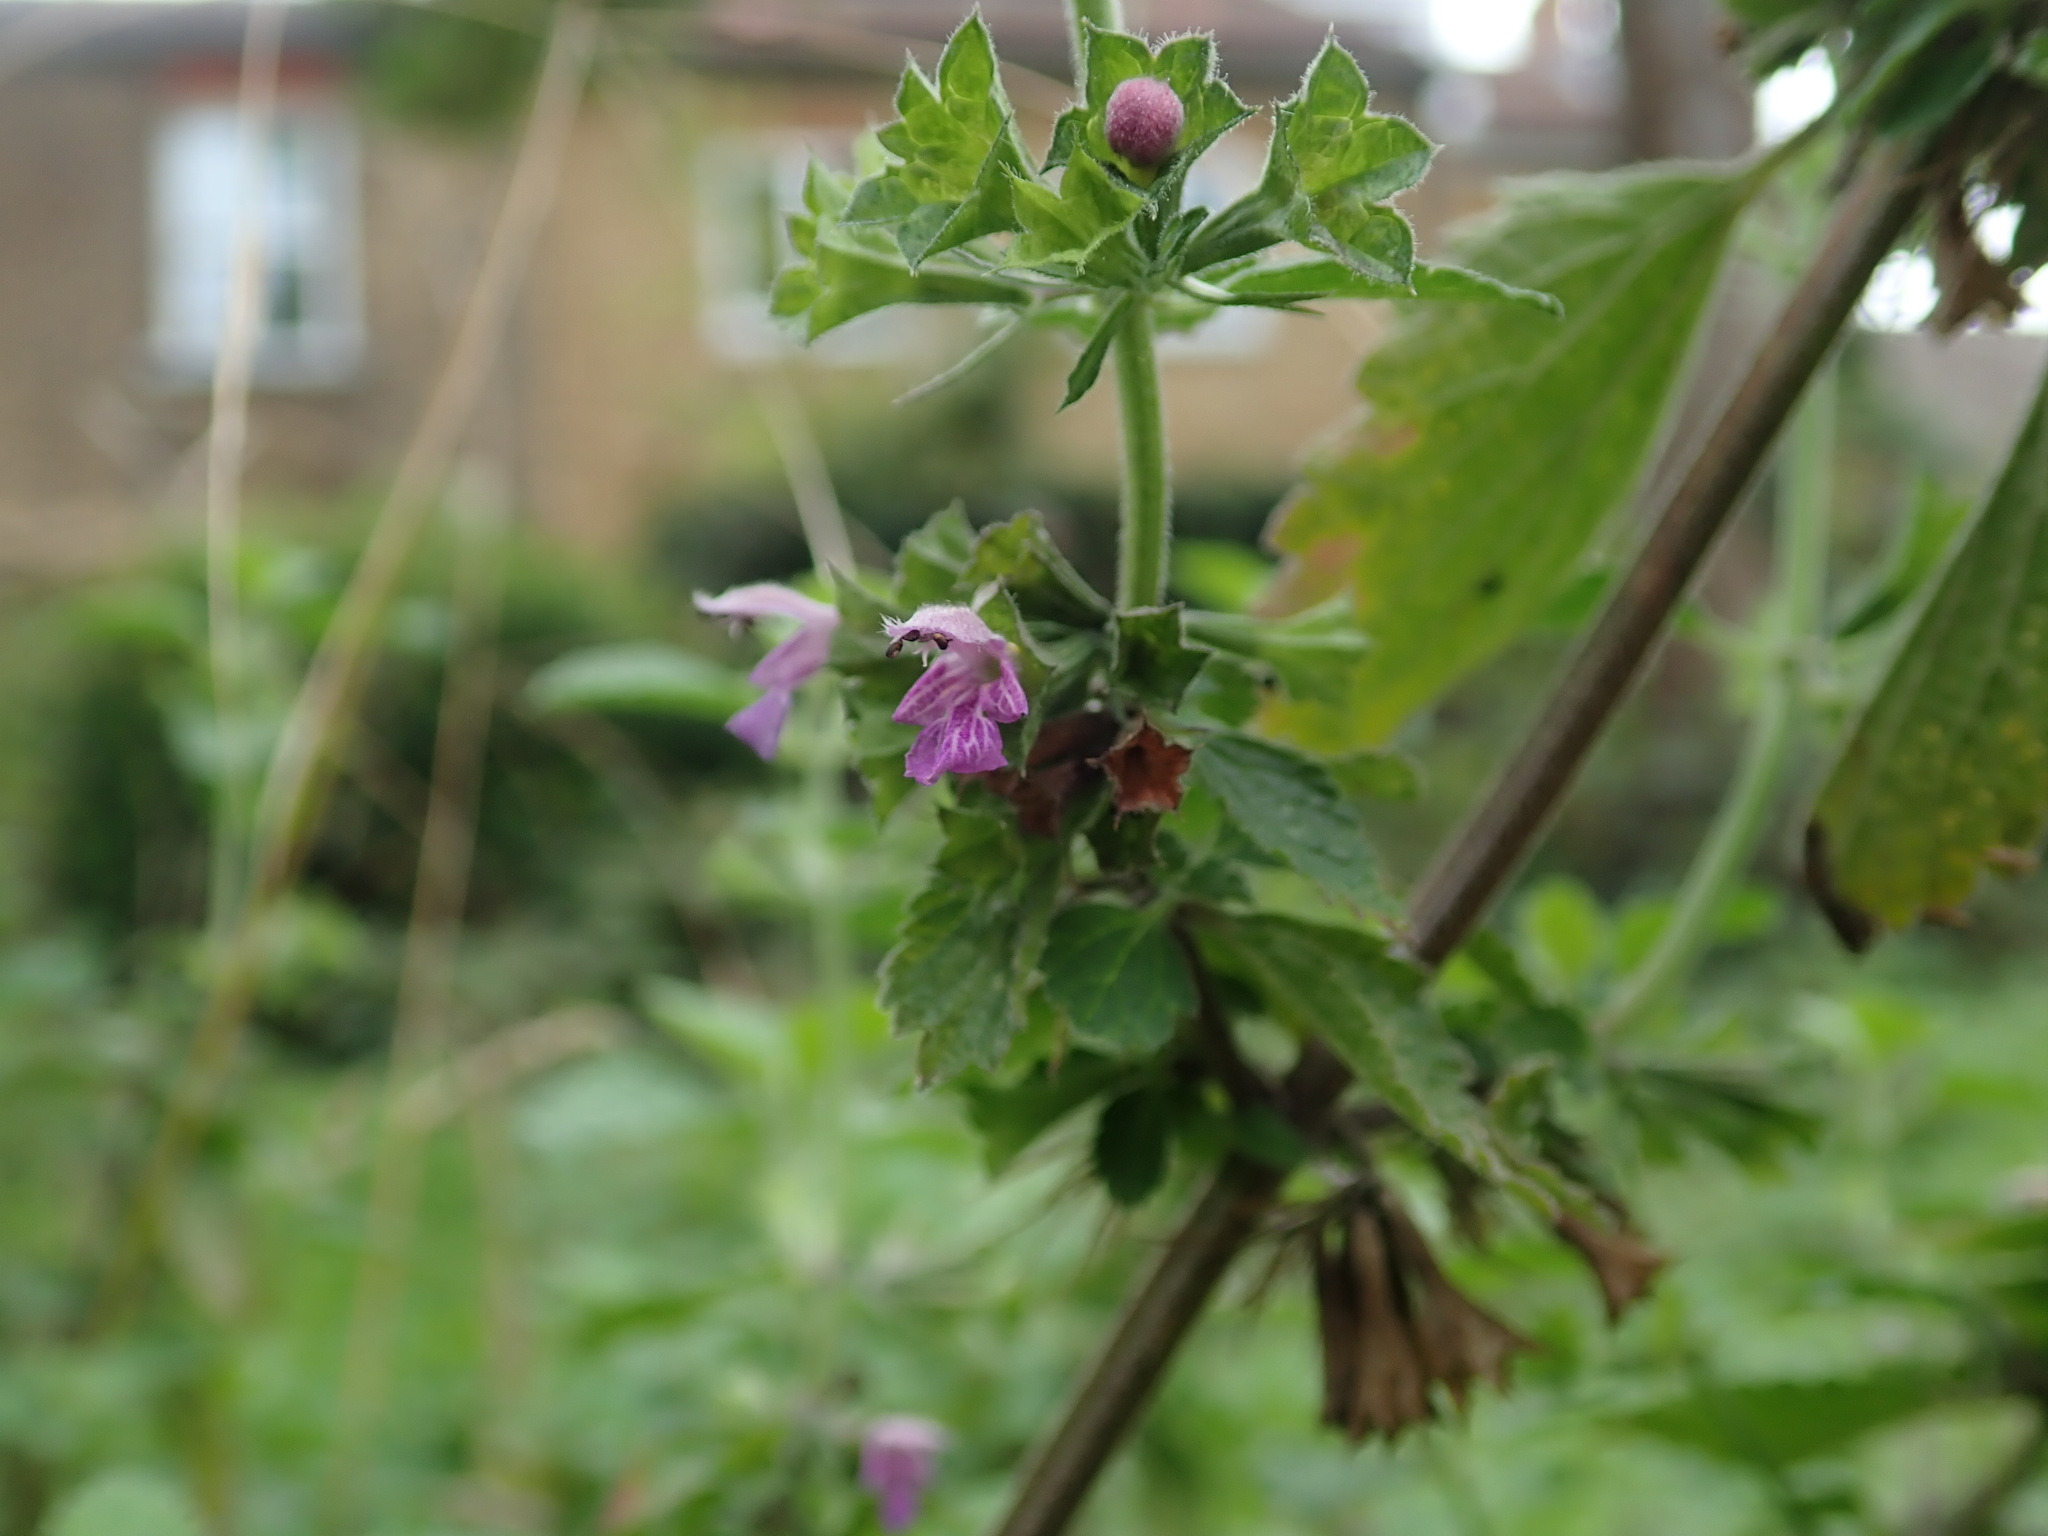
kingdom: Plantae
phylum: Tracheophyta
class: Magnoliopsida
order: Lamiales
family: Lamiaceae
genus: Ballota
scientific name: Ballota nigra
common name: Black horehound
